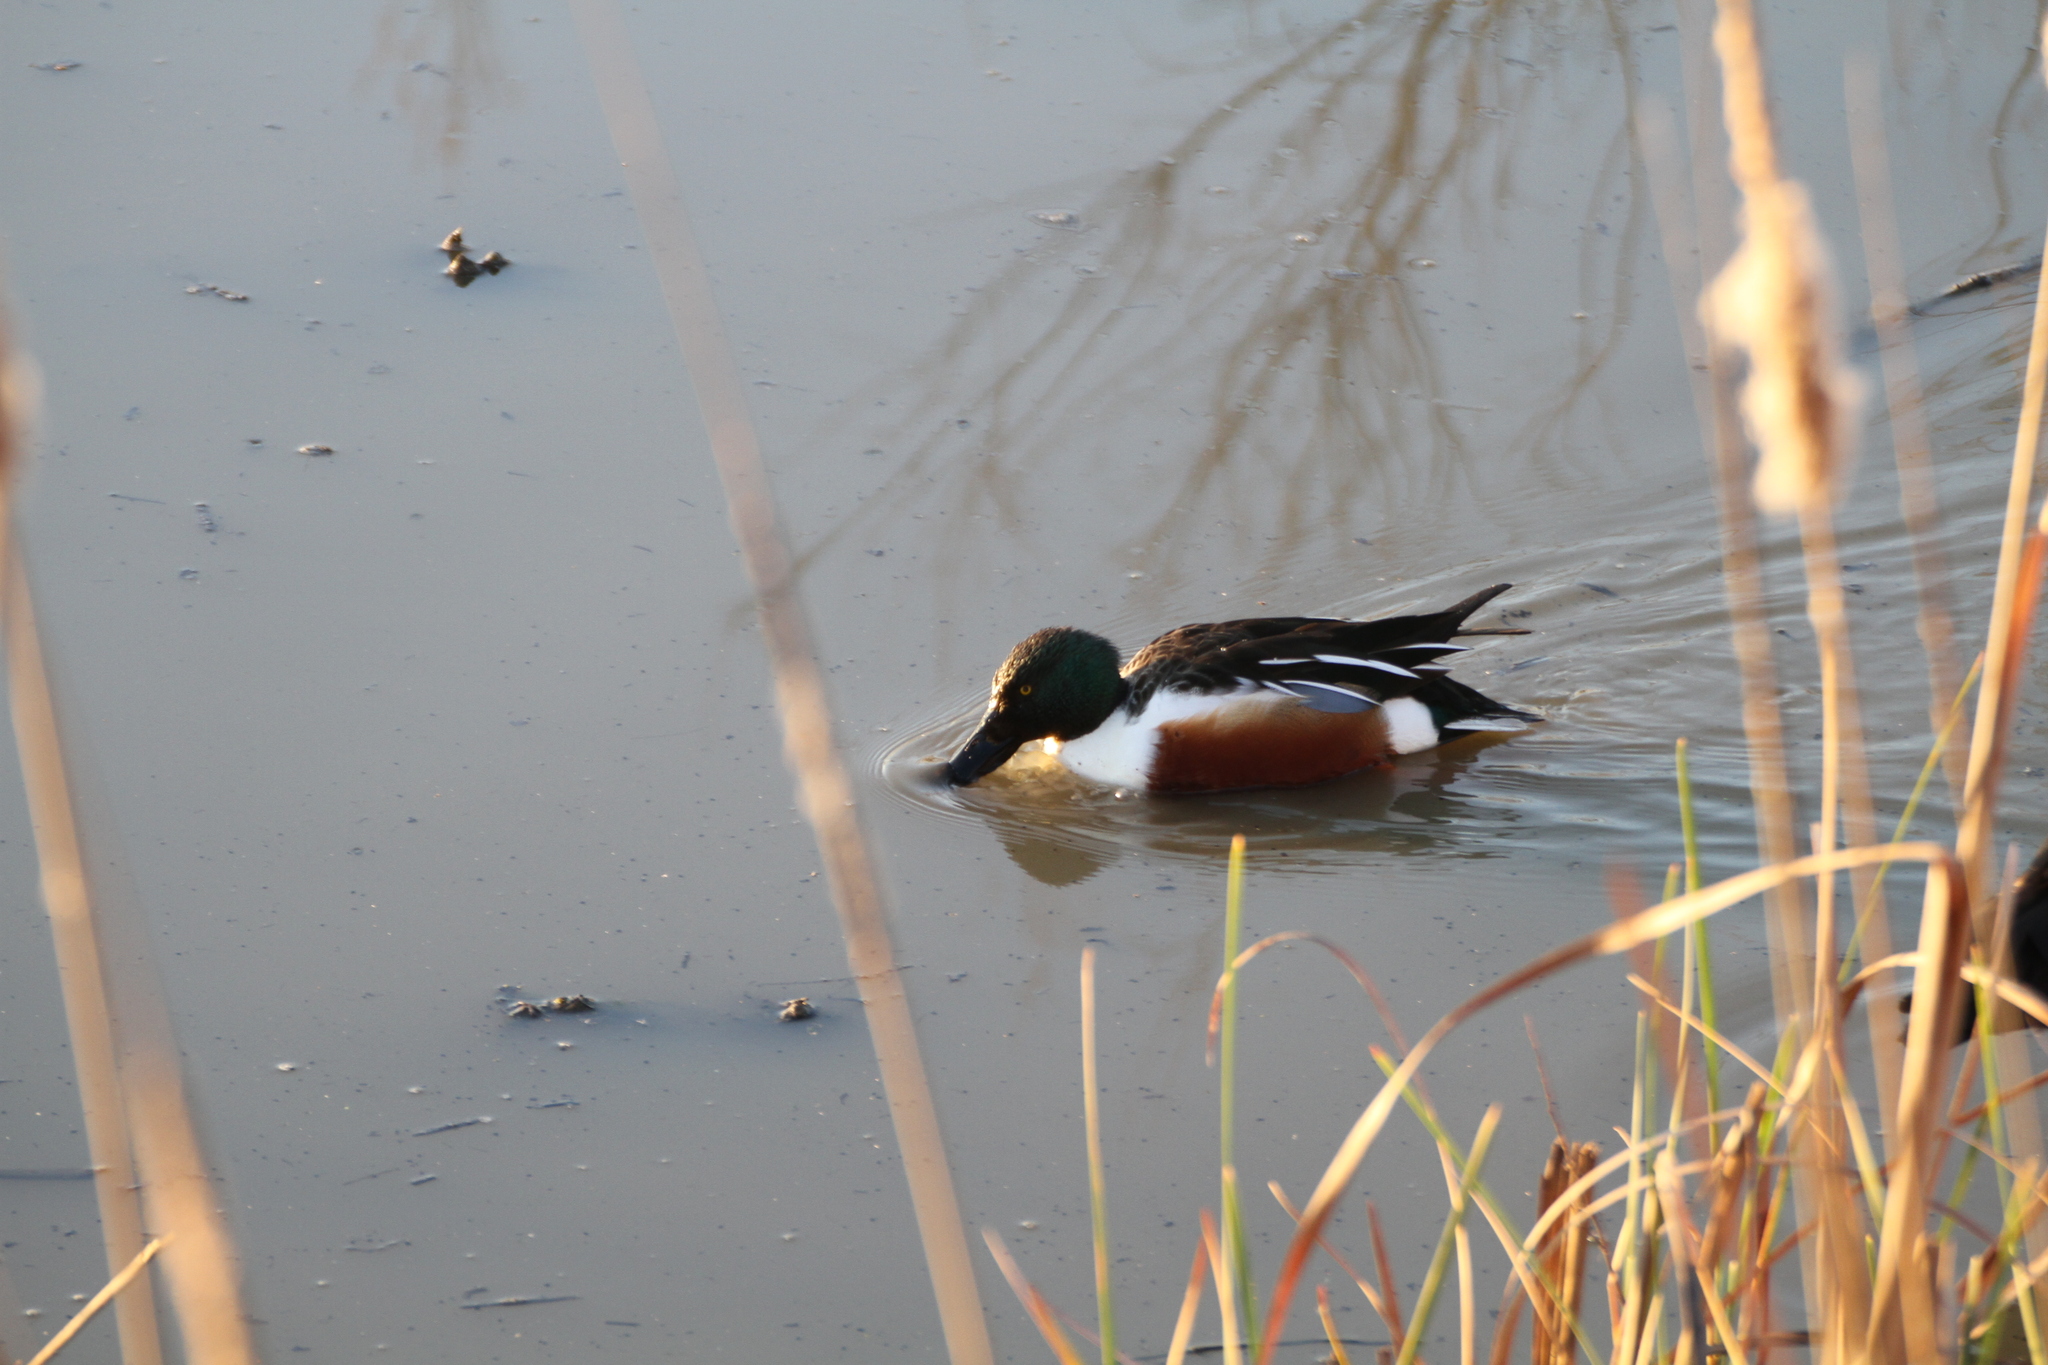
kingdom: Animalia
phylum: Chordata
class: Aves
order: Anseriformes
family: Anatidae
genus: Spatula
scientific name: Spatula clypeata
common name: Northern shoveler
